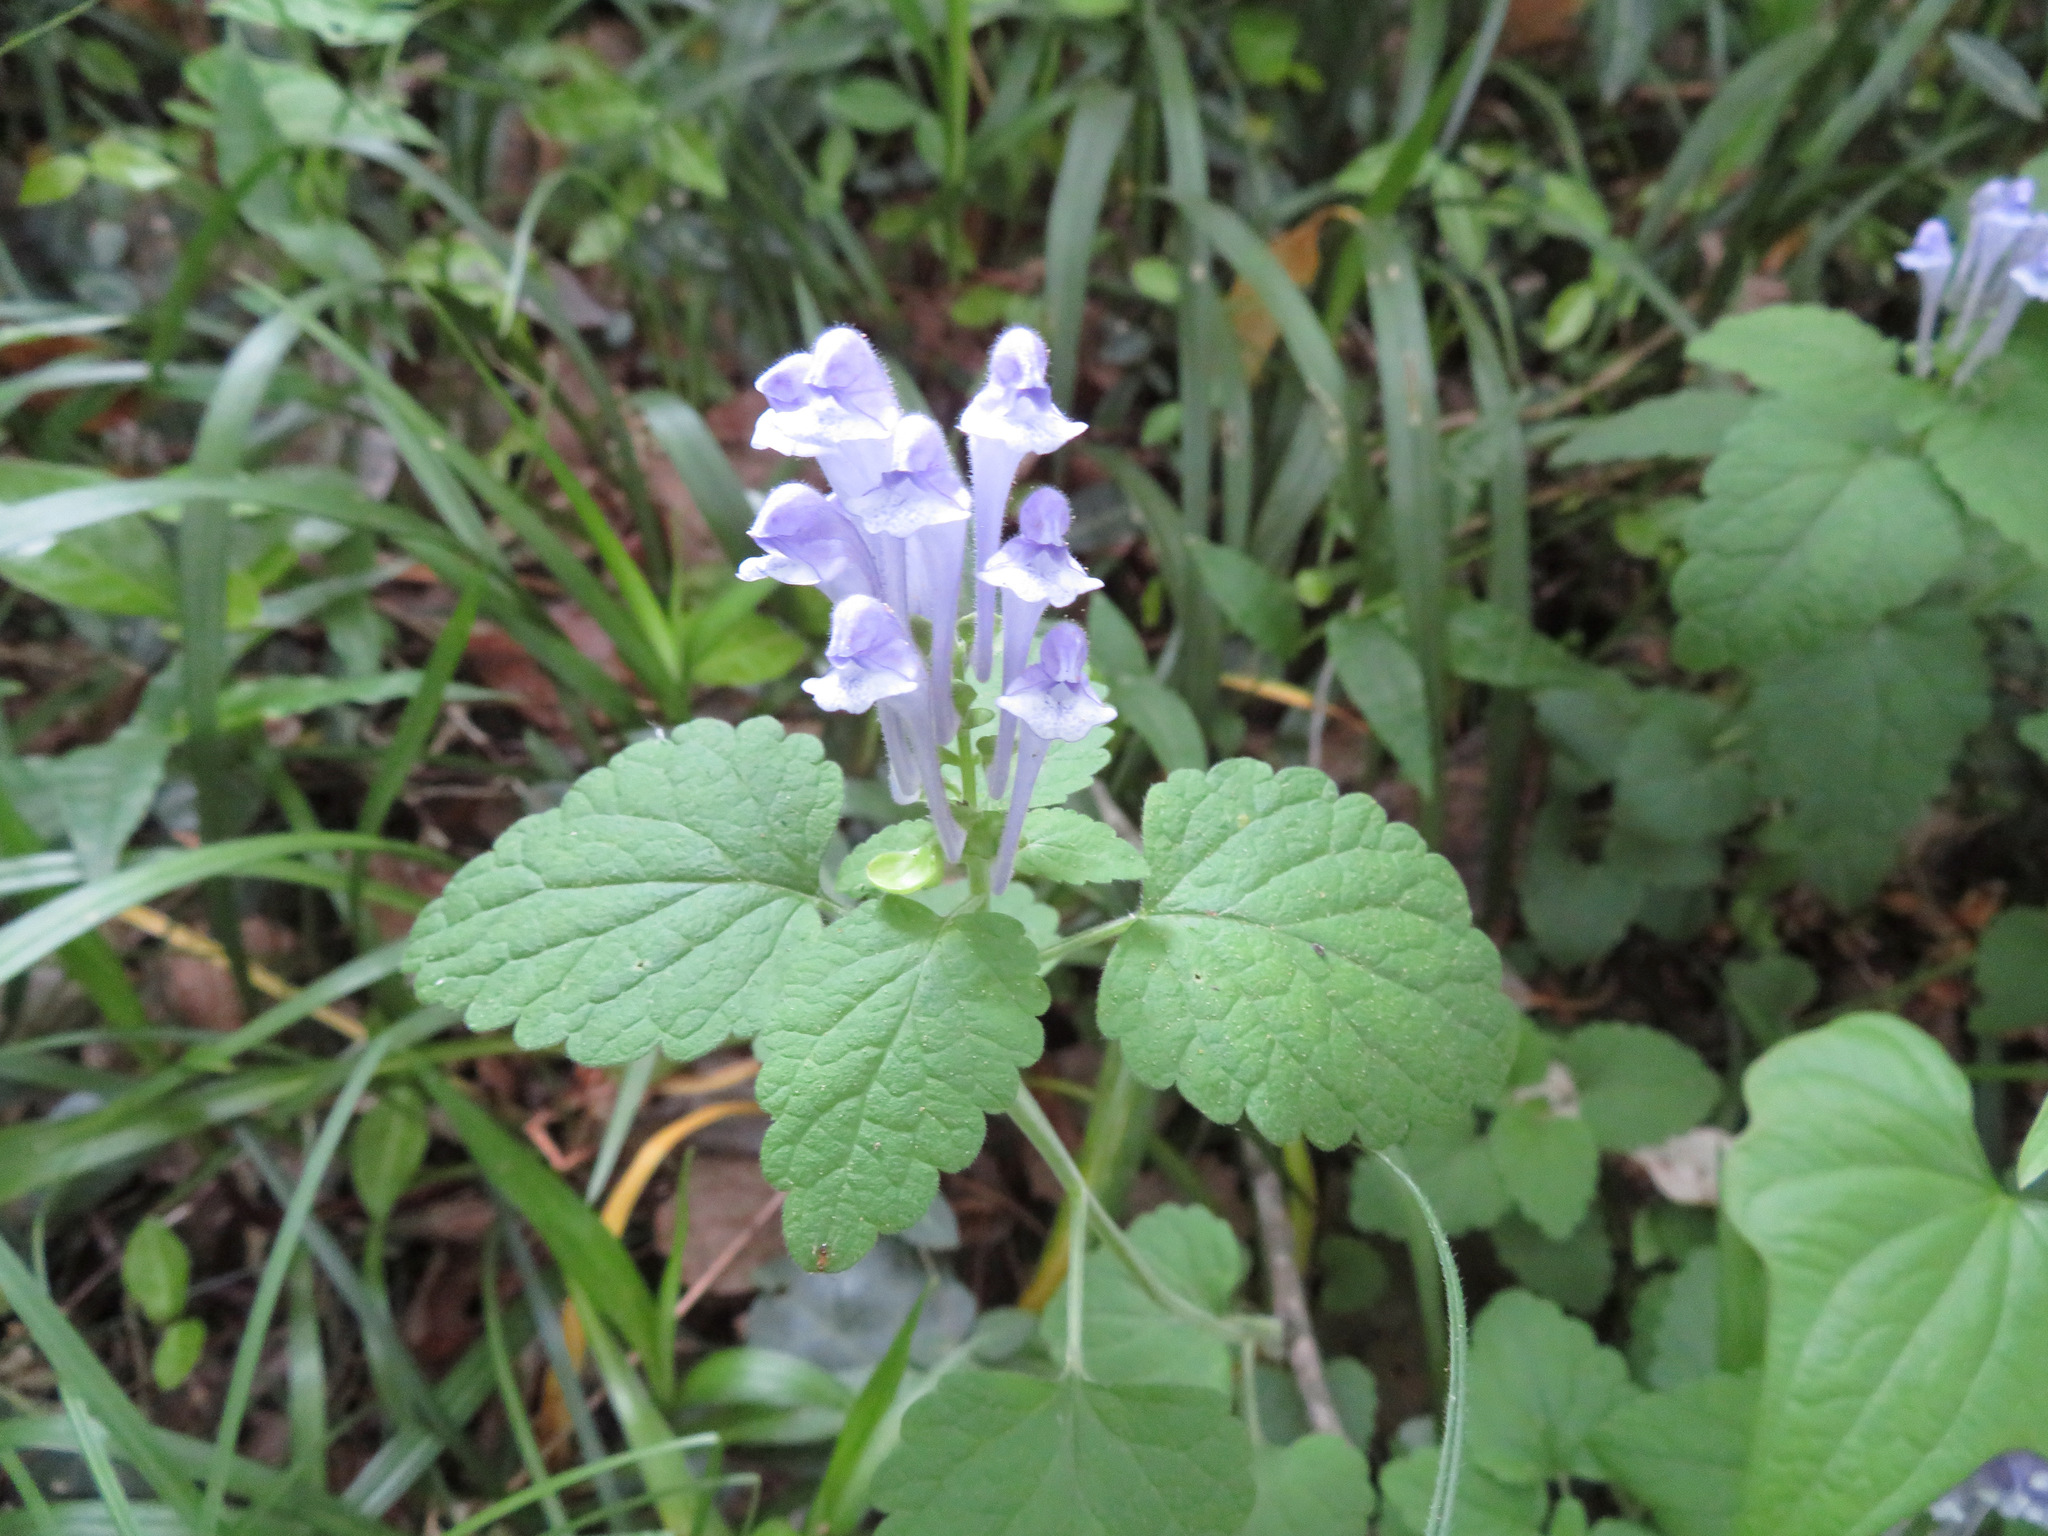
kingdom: Plantae
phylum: Tracheophyta
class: Magnoliopsida
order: Lamiales
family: Lamiaceae
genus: Scutellaria
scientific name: Scutellaria brachyspica
